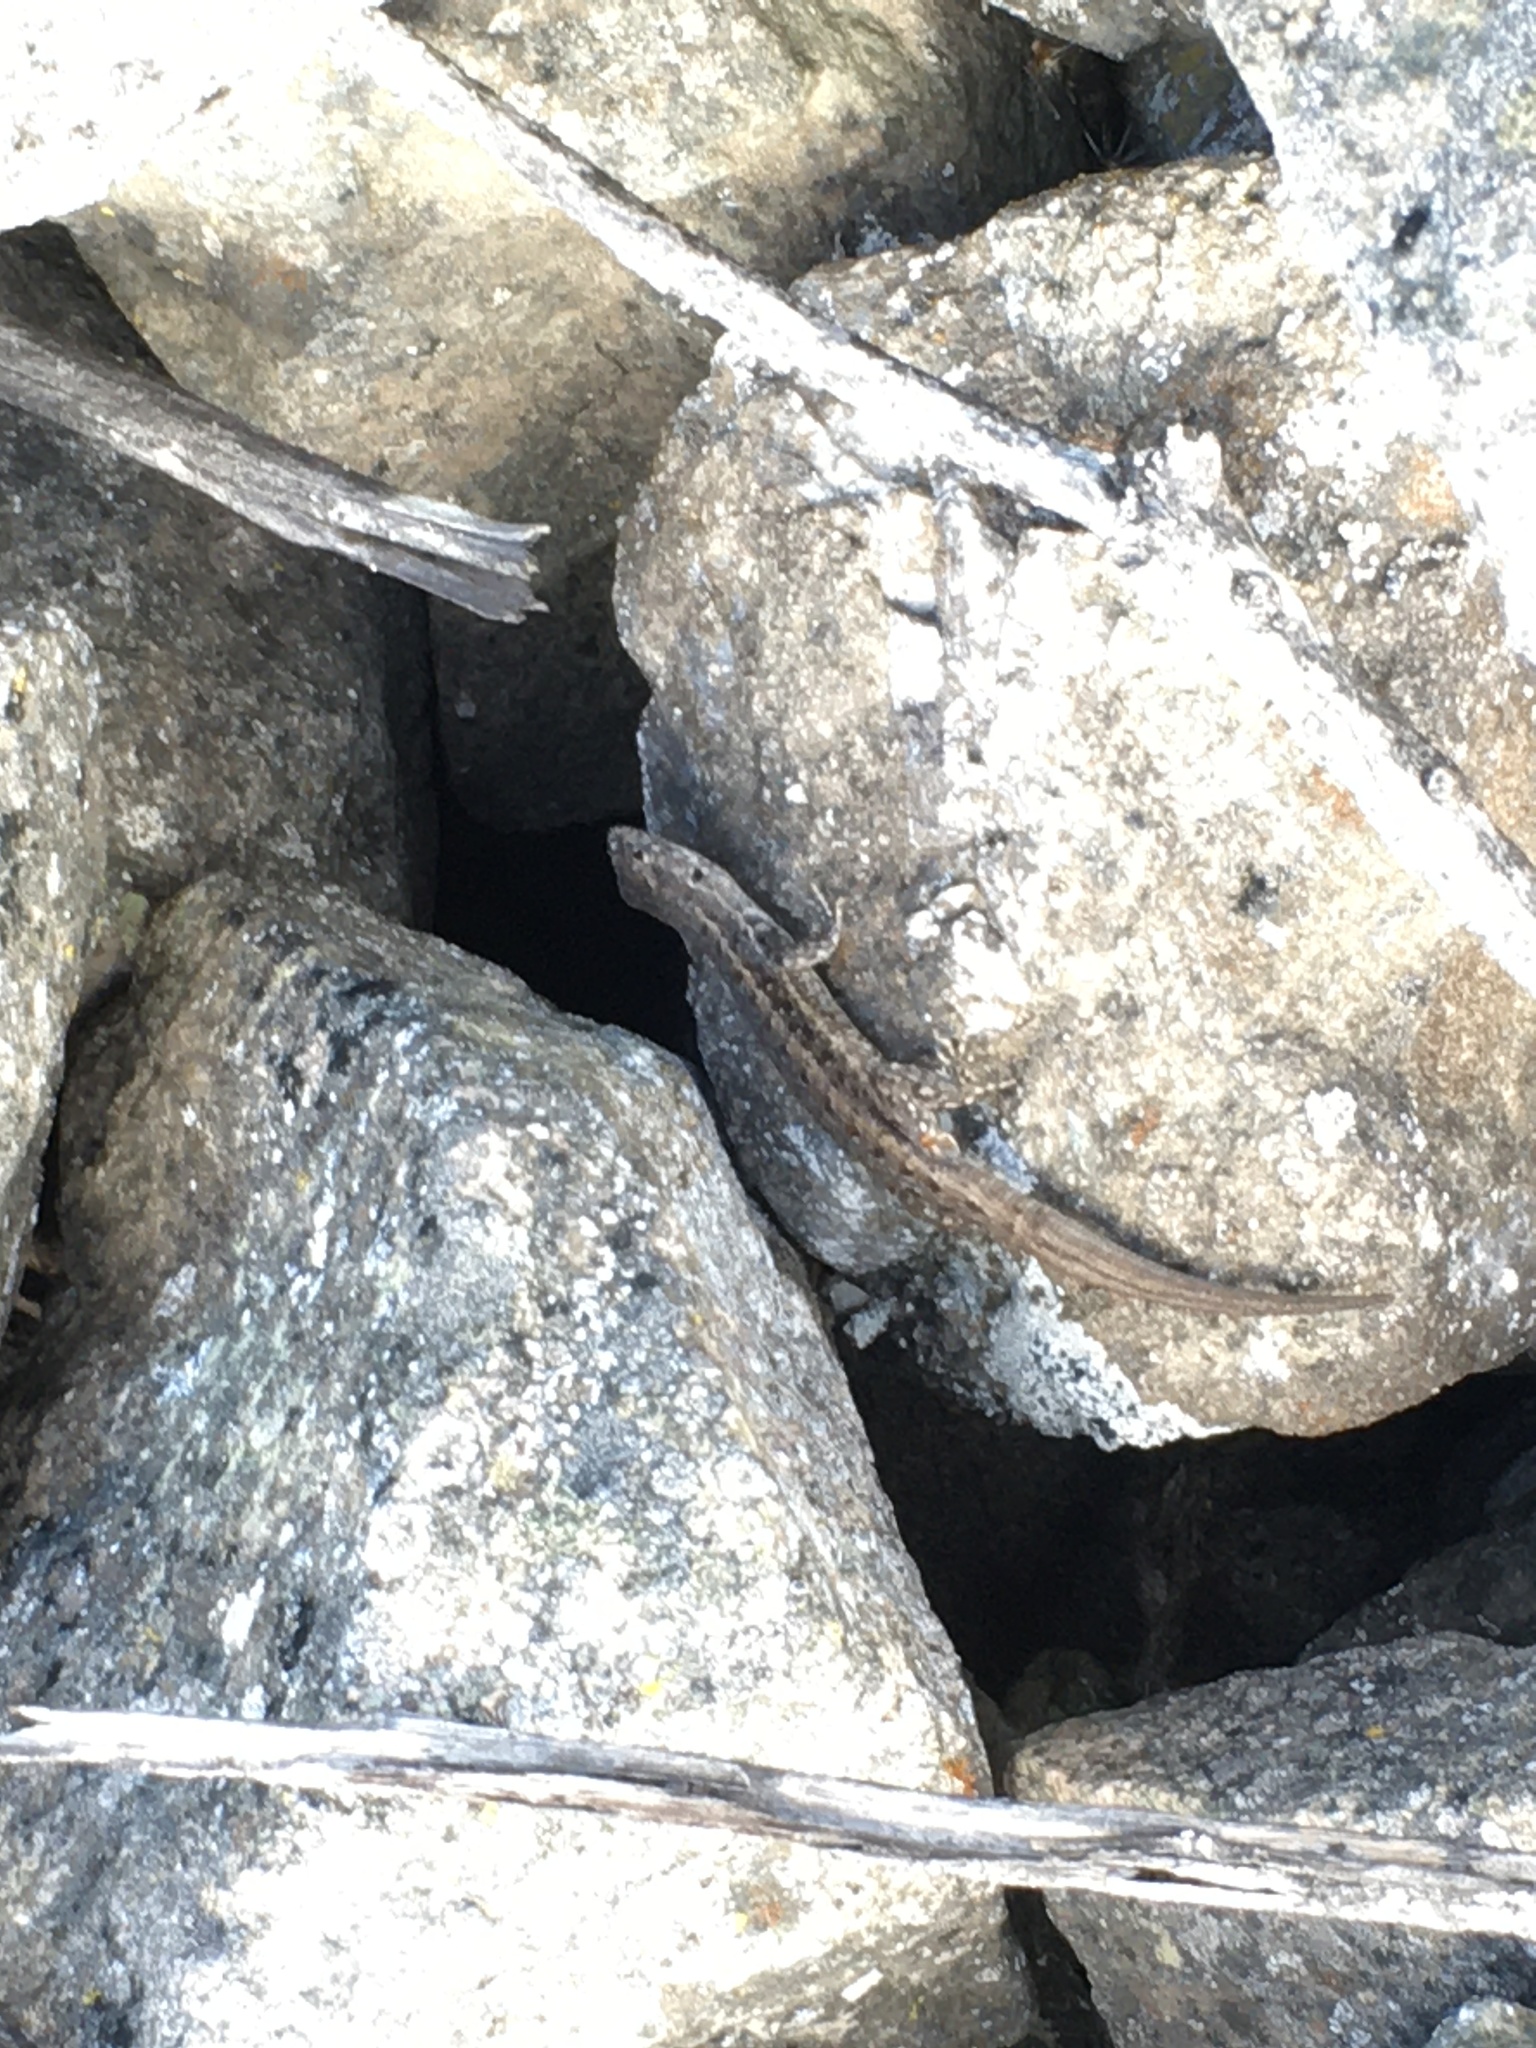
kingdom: Animalia
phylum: Chordata
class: Squamata
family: Liolaemidae
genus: Liolaemus
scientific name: Liolaemus platei
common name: Braided tree iguana
